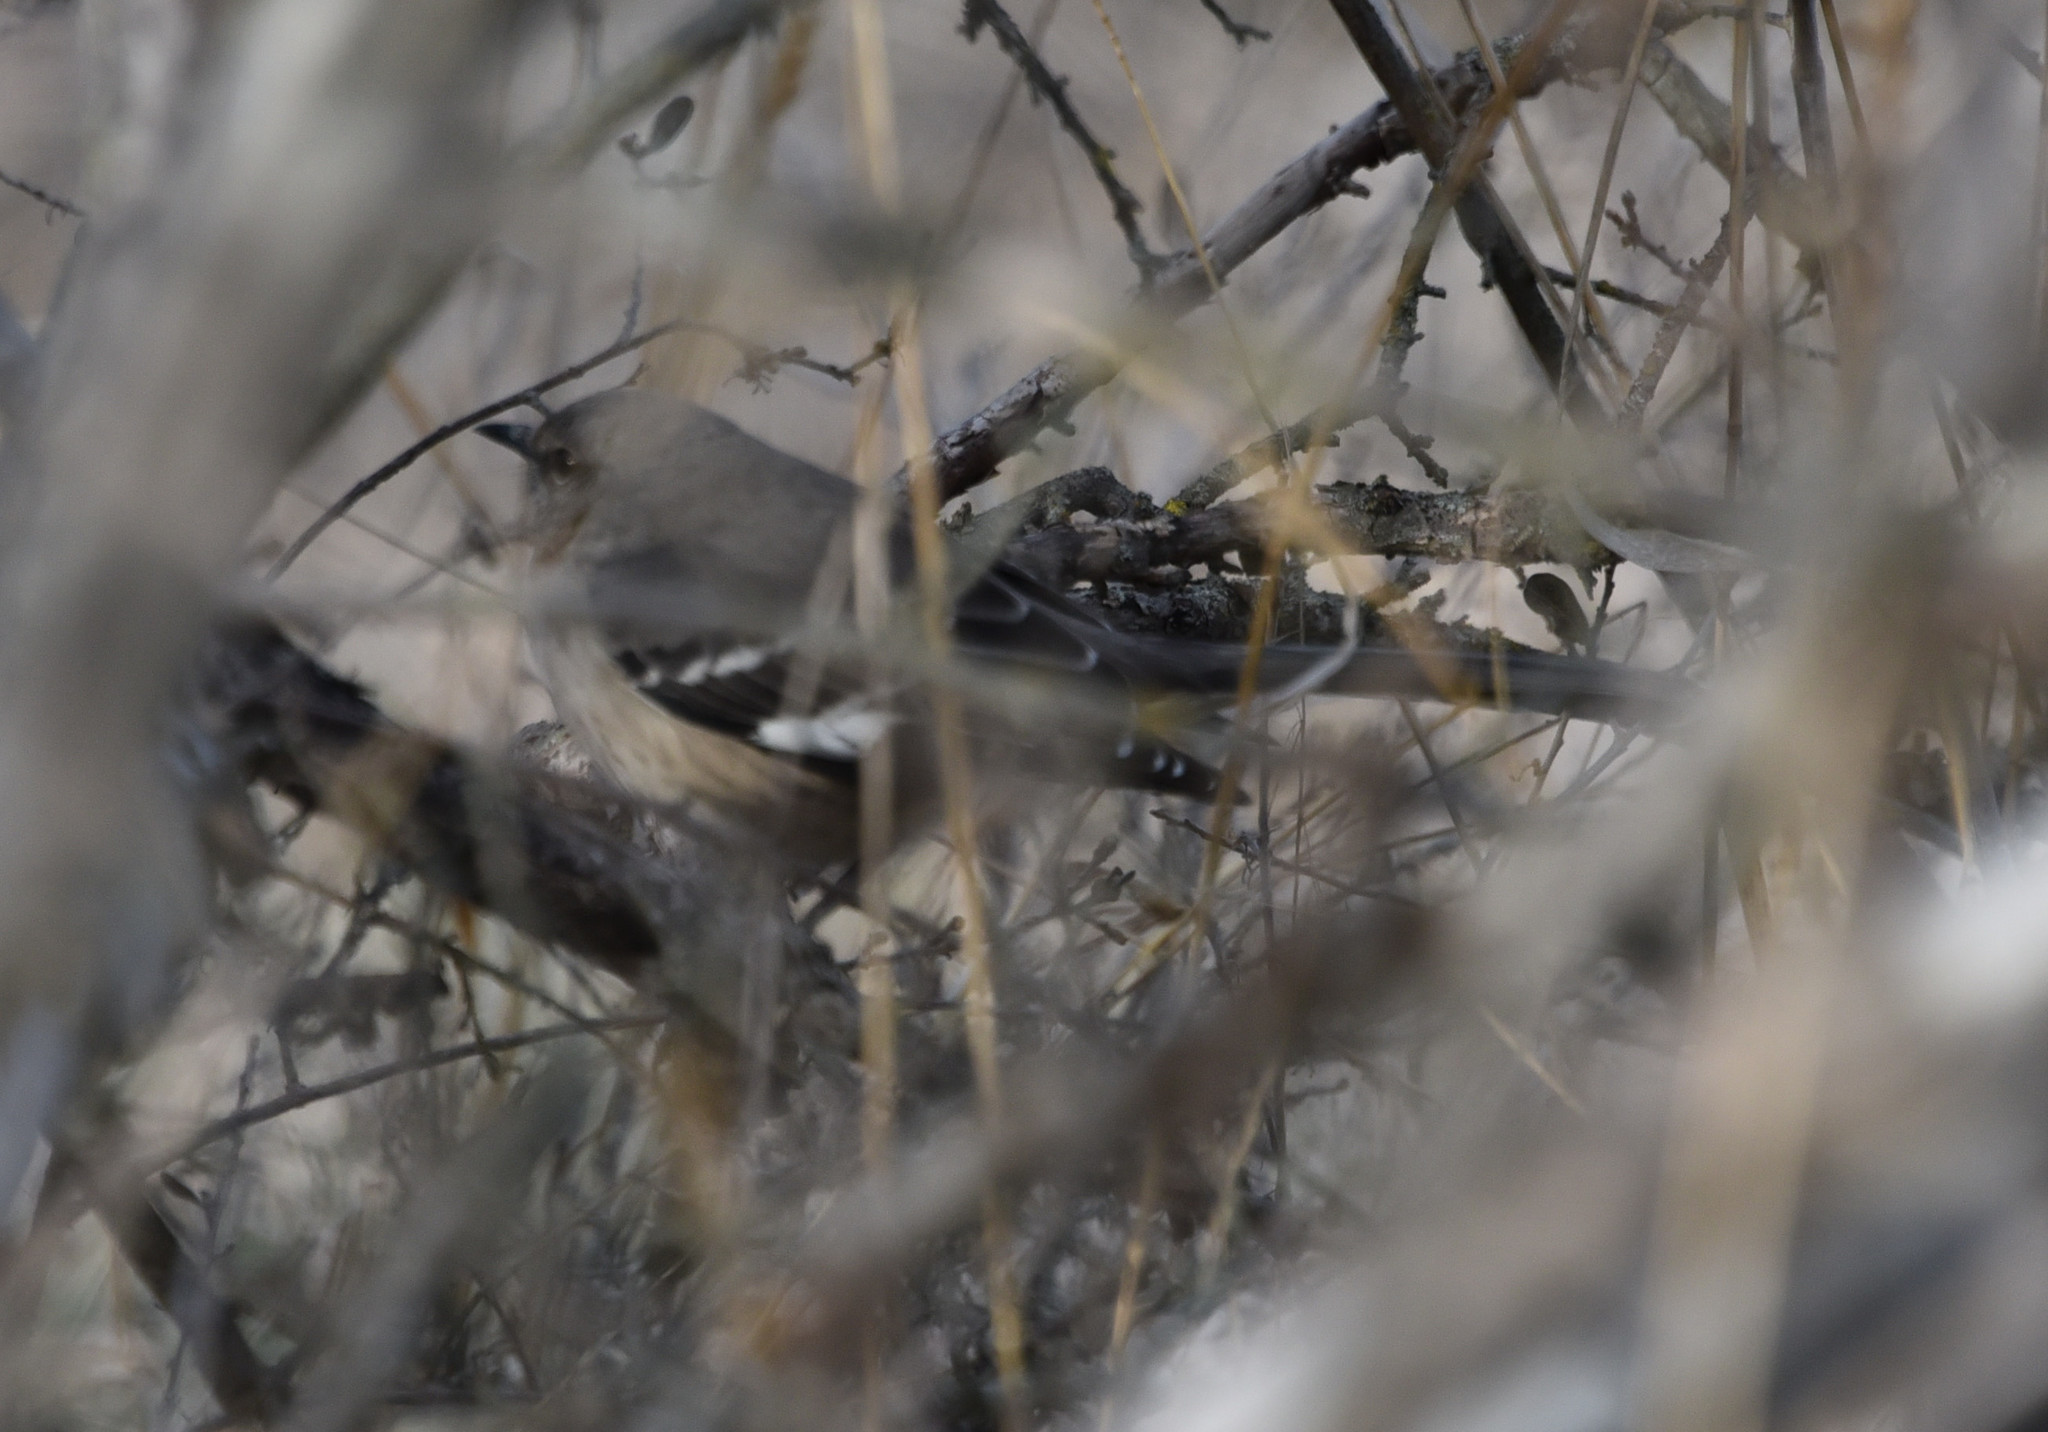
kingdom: Animalia
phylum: Chordata
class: Aves
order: Passeriformes
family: Mimidae
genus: Mimus
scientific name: Mimus polyglottos
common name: Northern mockingbird
